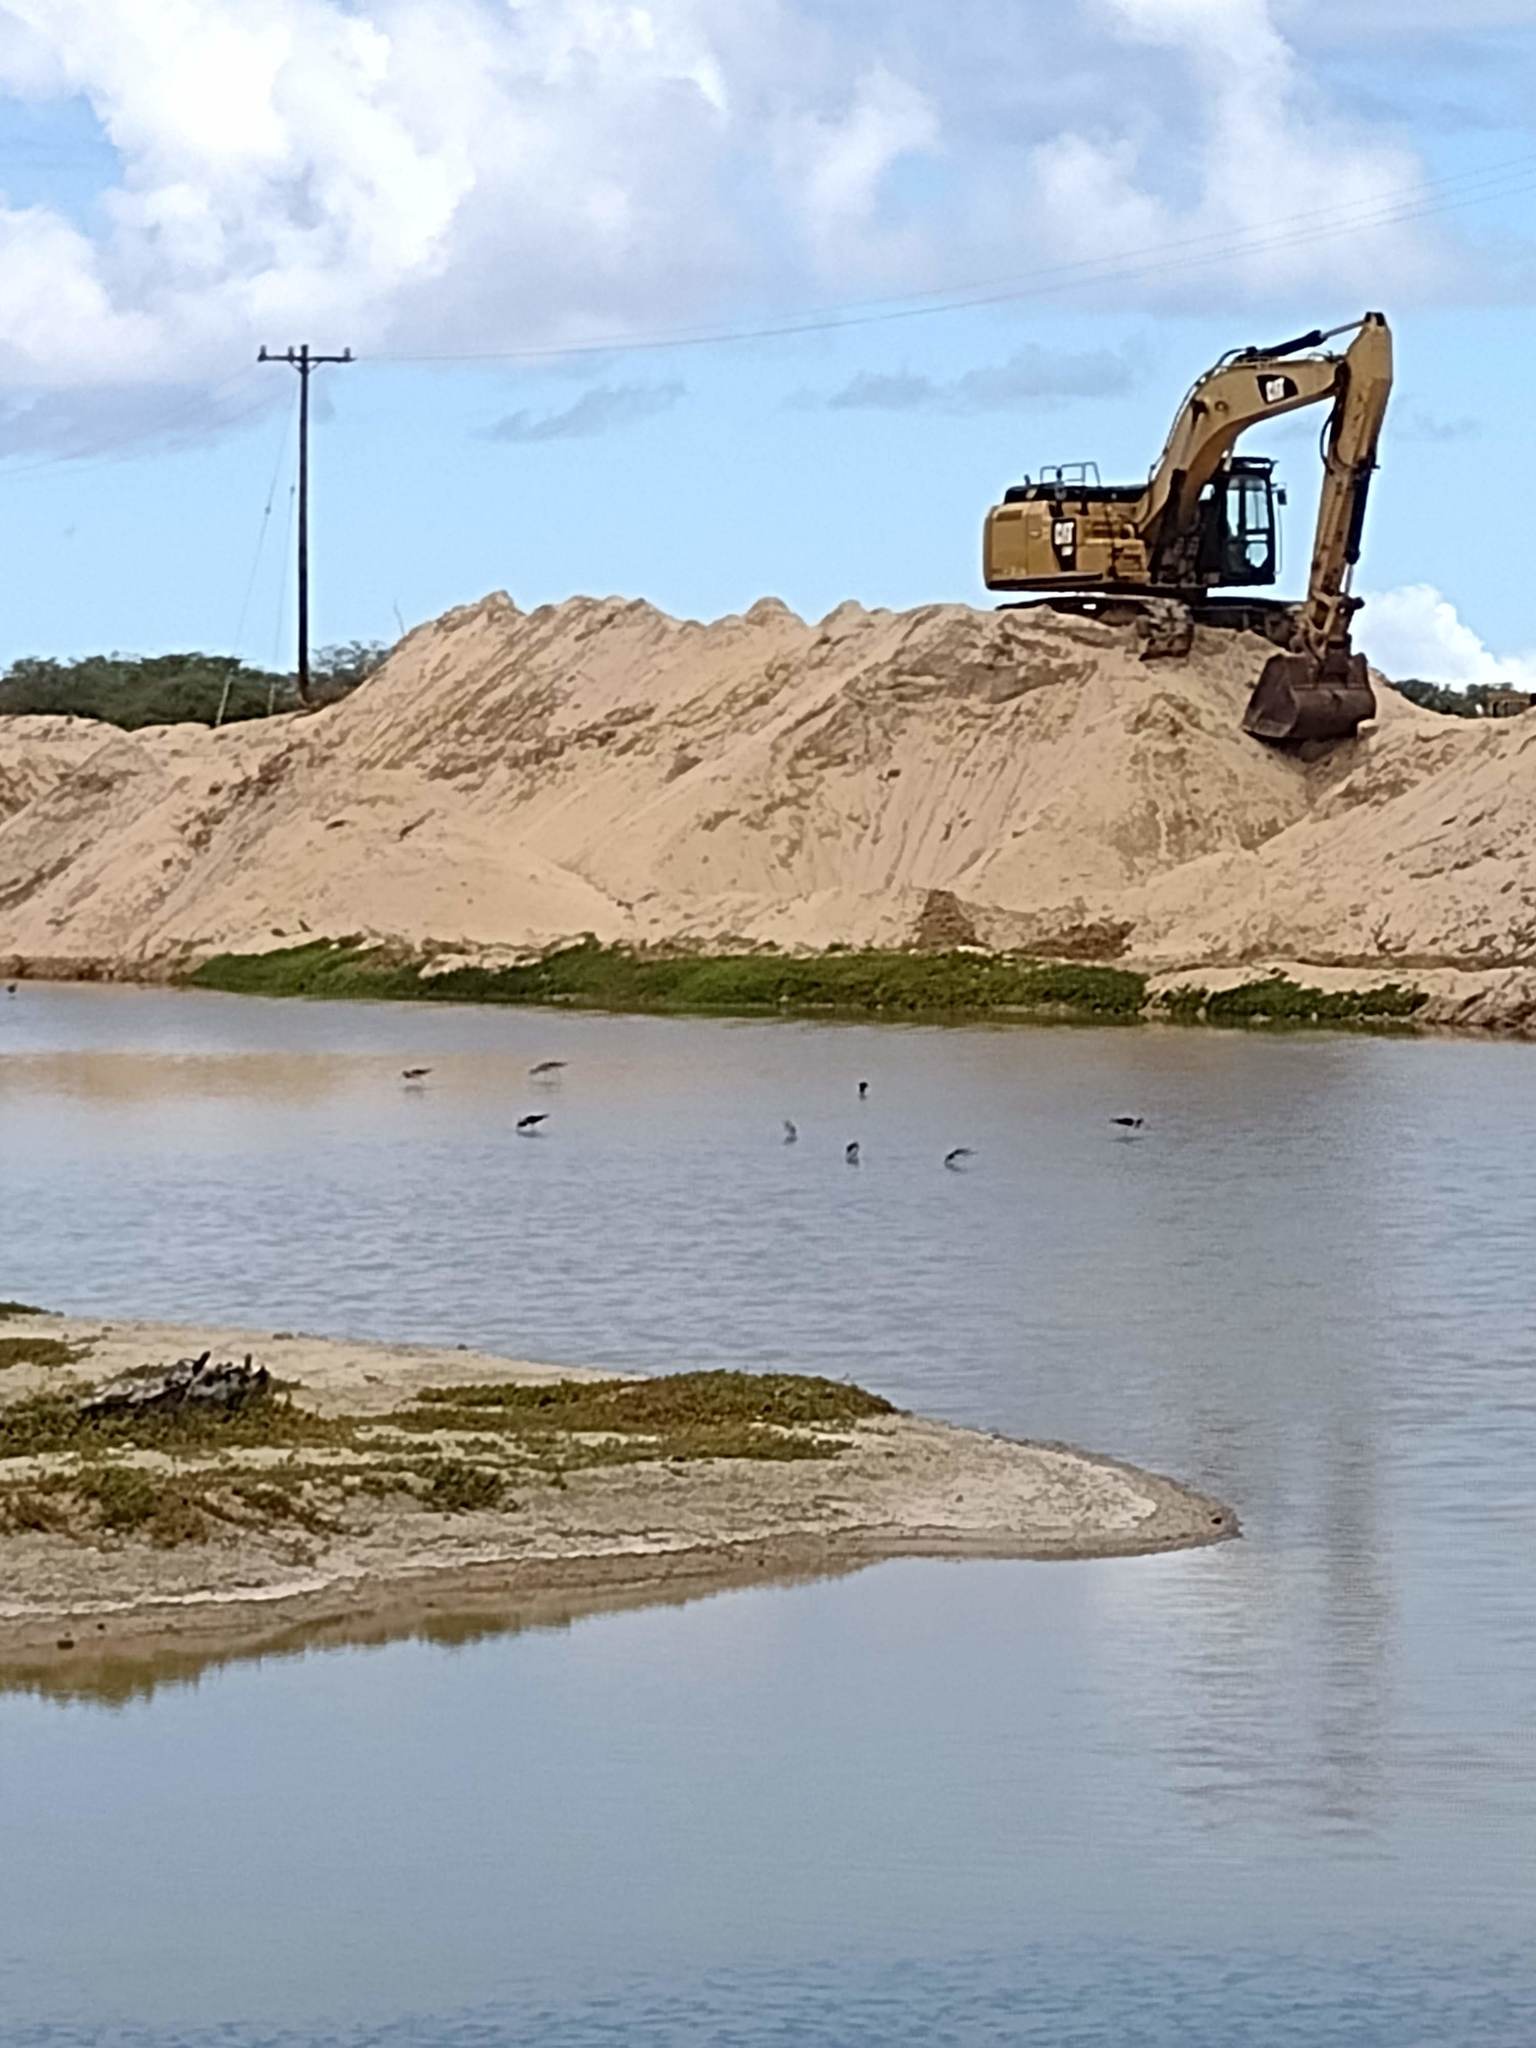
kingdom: Animalia
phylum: Chordata
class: Aves
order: Charadriiformes
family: Recurvirostridae
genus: Himantopus
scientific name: Himantopus mexicanus
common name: Black-necked stilt
